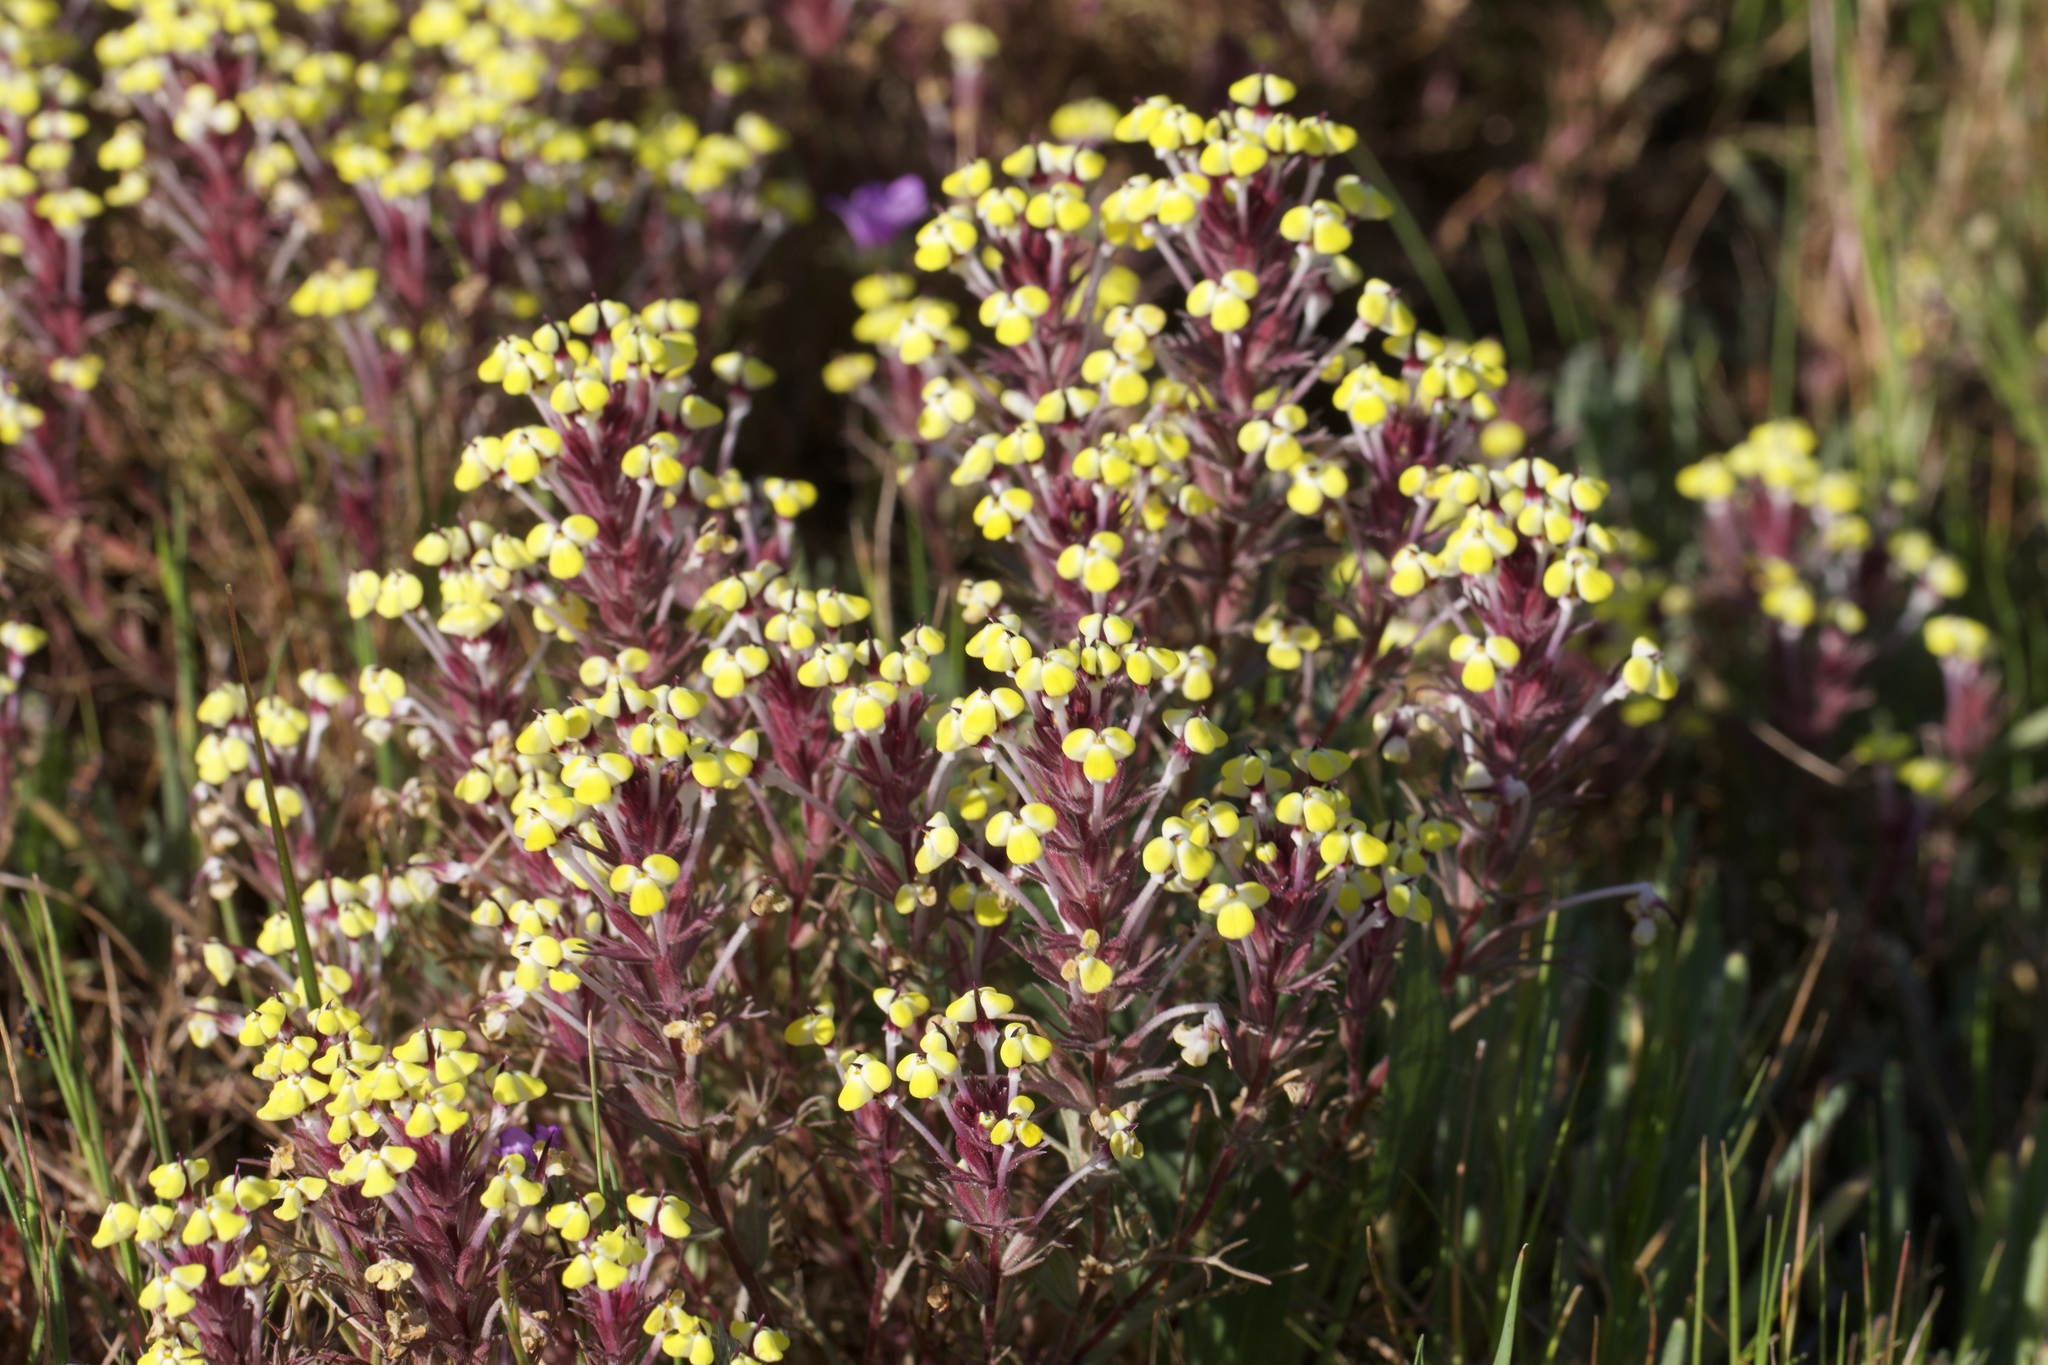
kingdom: Plantae
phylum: Tracheophyta
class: Magnoliopsida
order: Lamiales
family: Orobanchaceae
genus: Triphysaria
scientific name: Triphysaria eriantha
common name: Johnny-tuck
